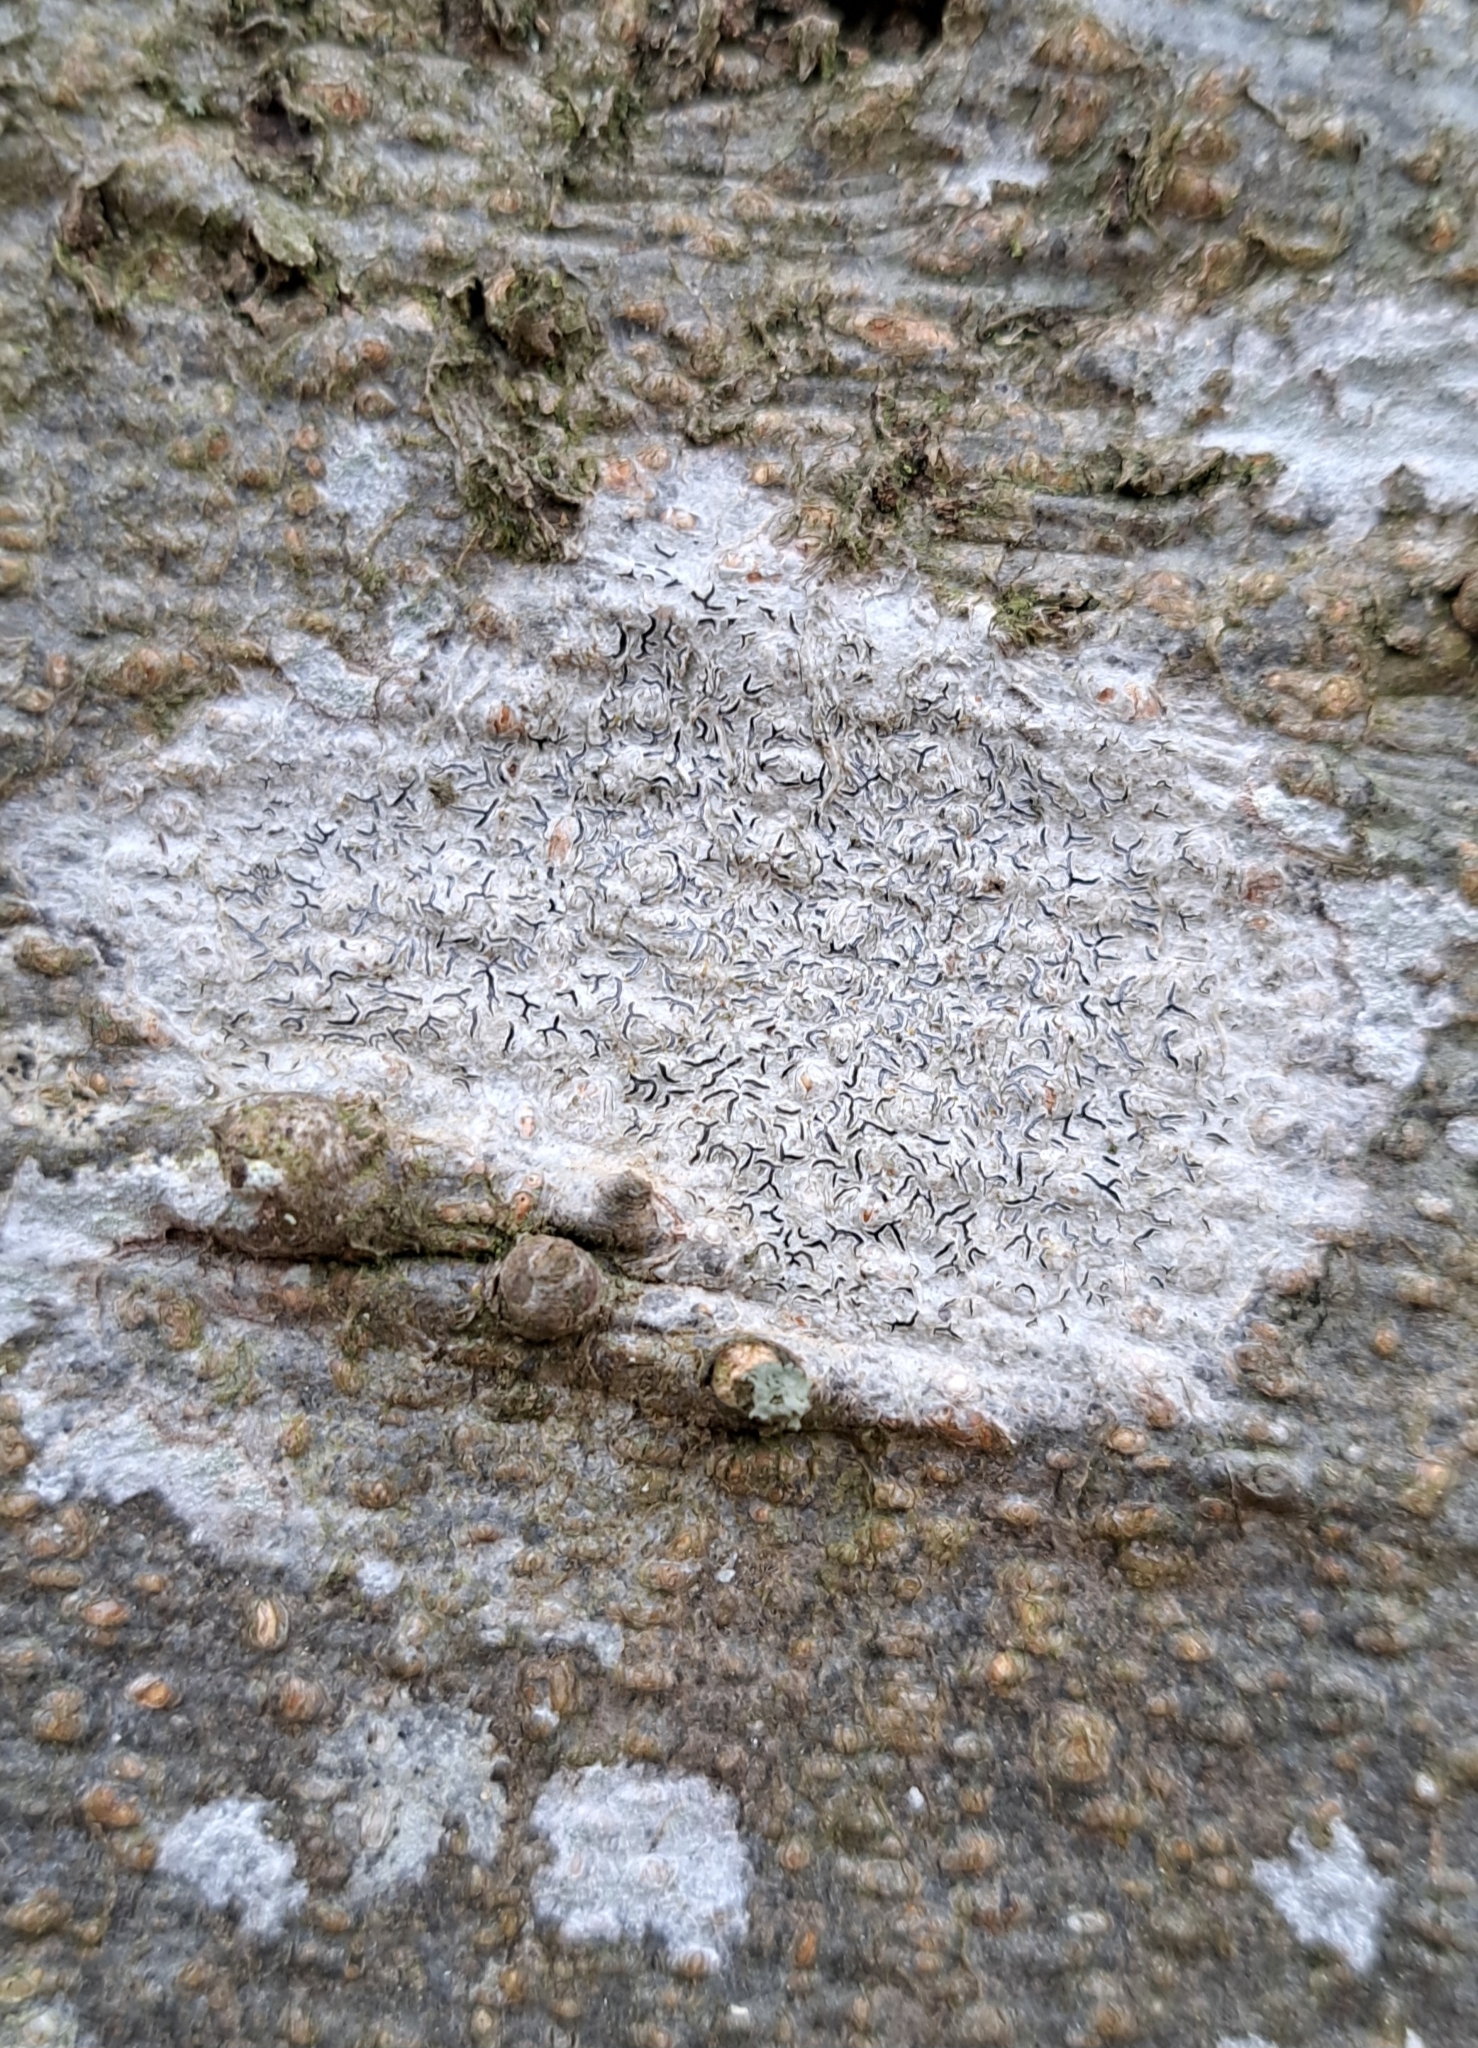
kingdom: Fungi
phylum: Ascomycota
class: Lecanoromycetes
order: Ostropales
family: Graphidaceae
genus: Graphis
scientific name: Graphis scripta
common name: Script lichen
